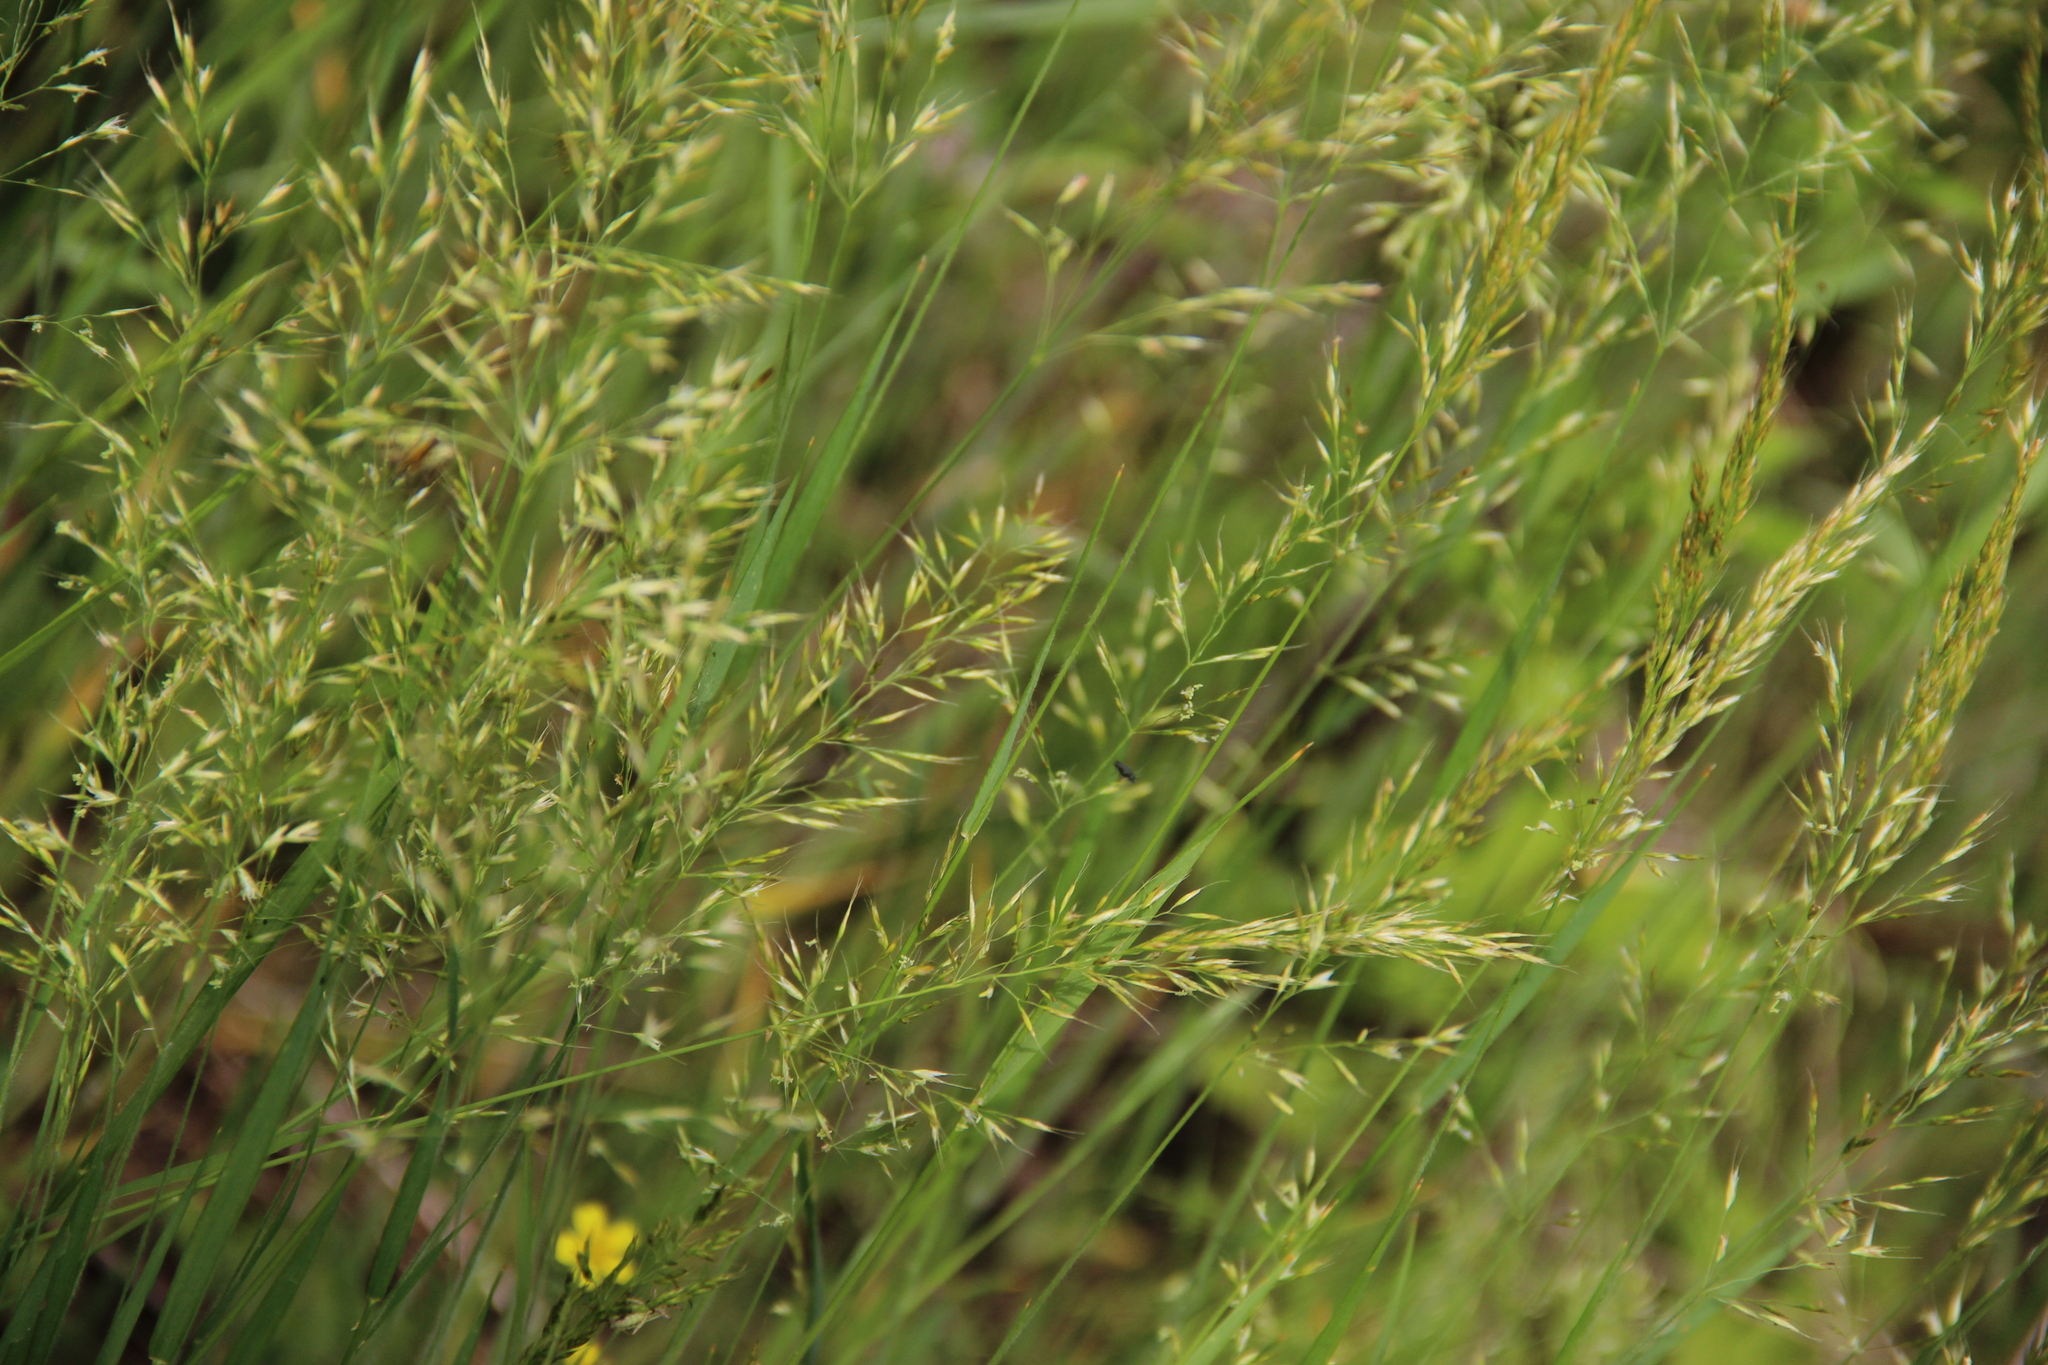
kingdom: Plantae
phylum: Tracheophyta
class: Liliopsida
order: Poales
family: Poaceae
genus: Trisetum
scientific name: Trisetum flavescens
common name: Yellow oat-grass
